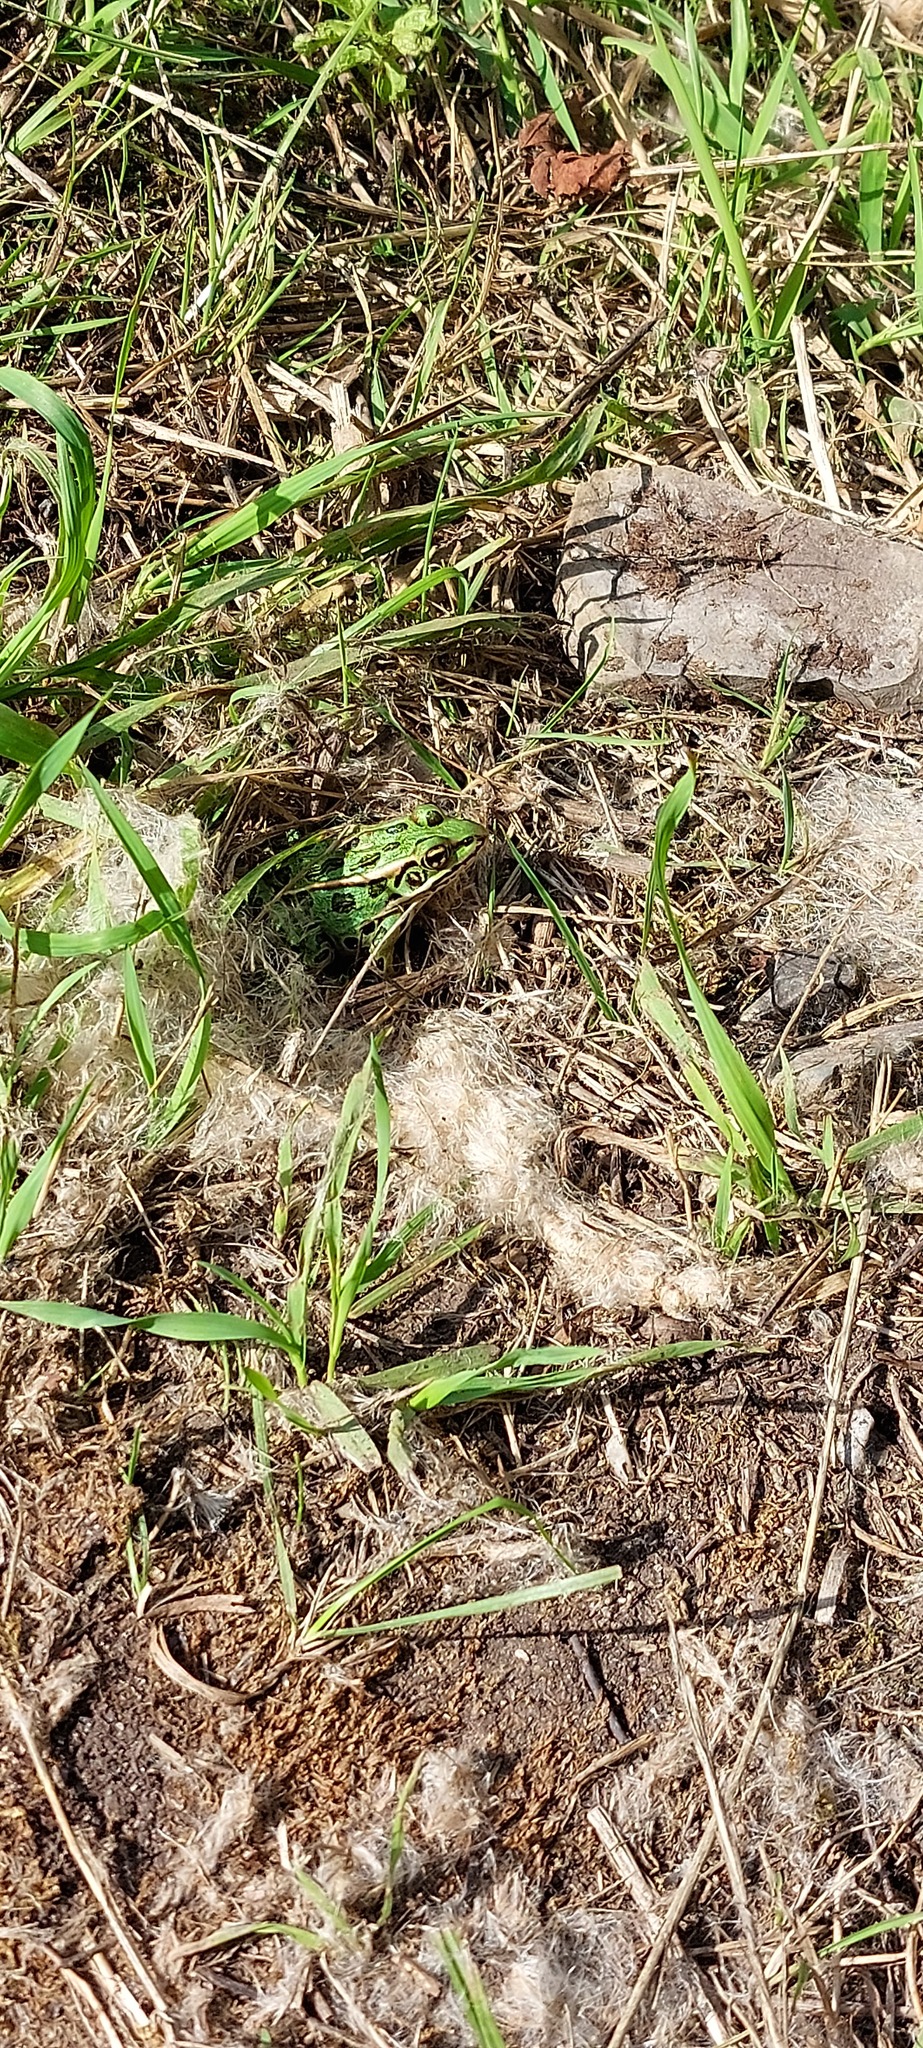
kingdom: Animalia
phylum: Chordata
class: Amphibia
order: Anura
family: Ranidae
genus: Lithobates
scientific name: Lithobates pipiens
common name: Northern leopard frog
